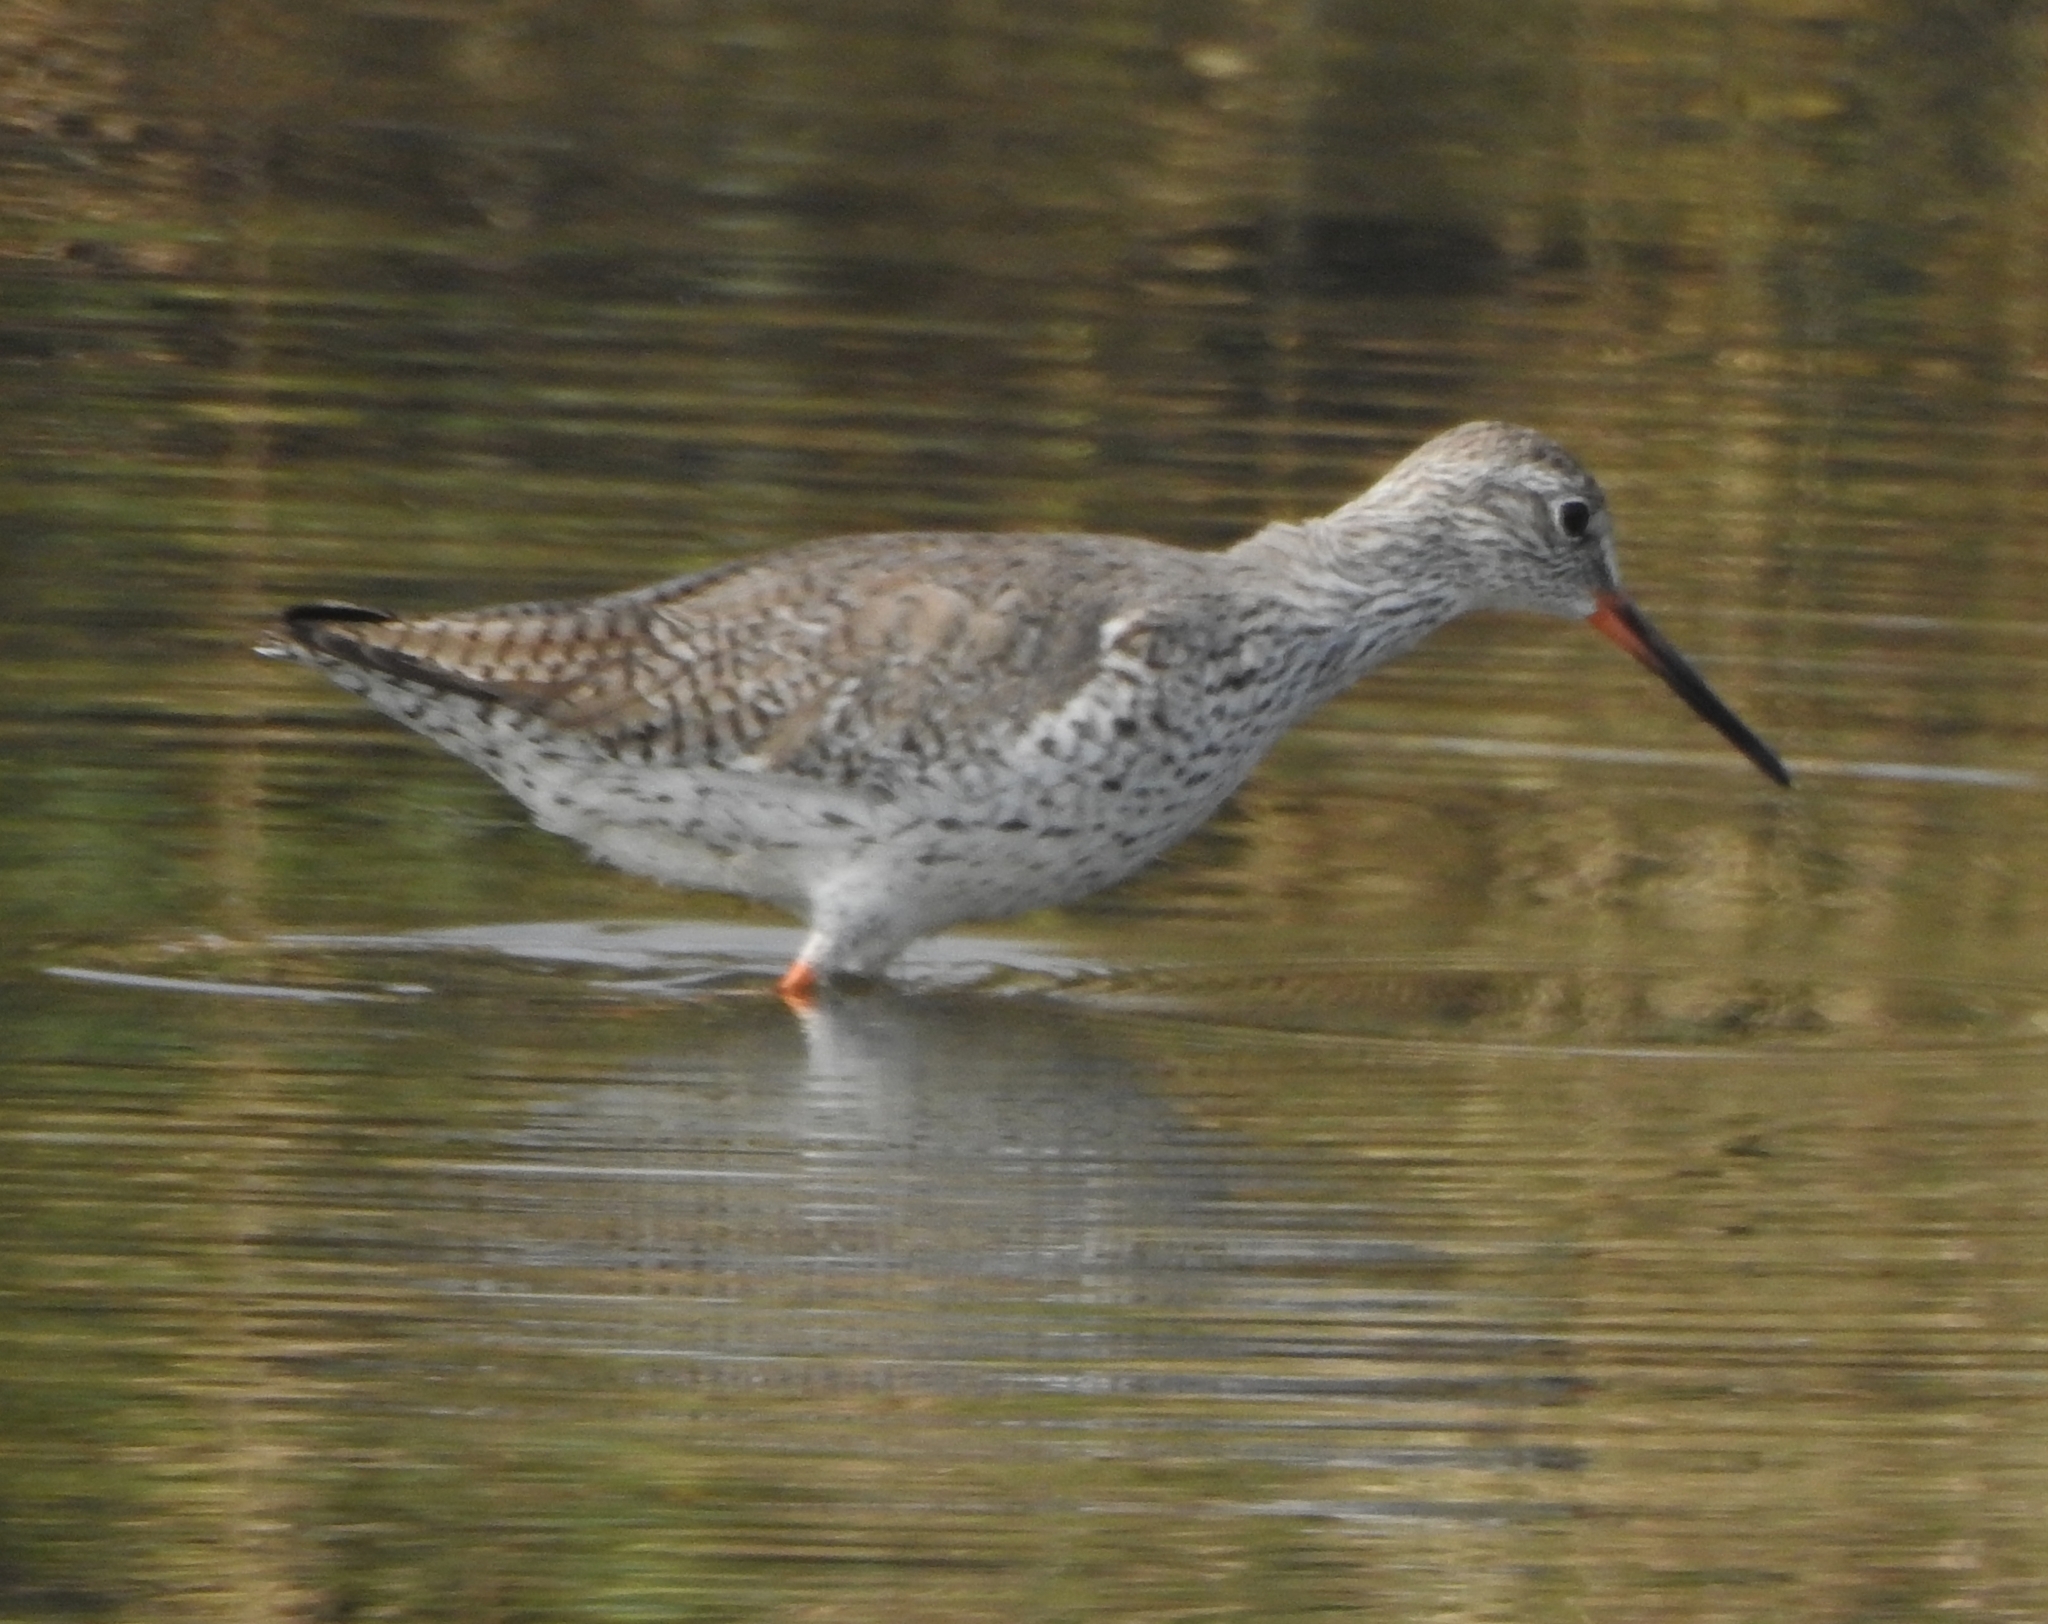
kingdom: Animalia
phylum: Chordata
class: Aves
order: Charadriiformes
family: Scolopacidae
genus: Tringa
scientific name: Tringa totanus
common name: Common redshank
